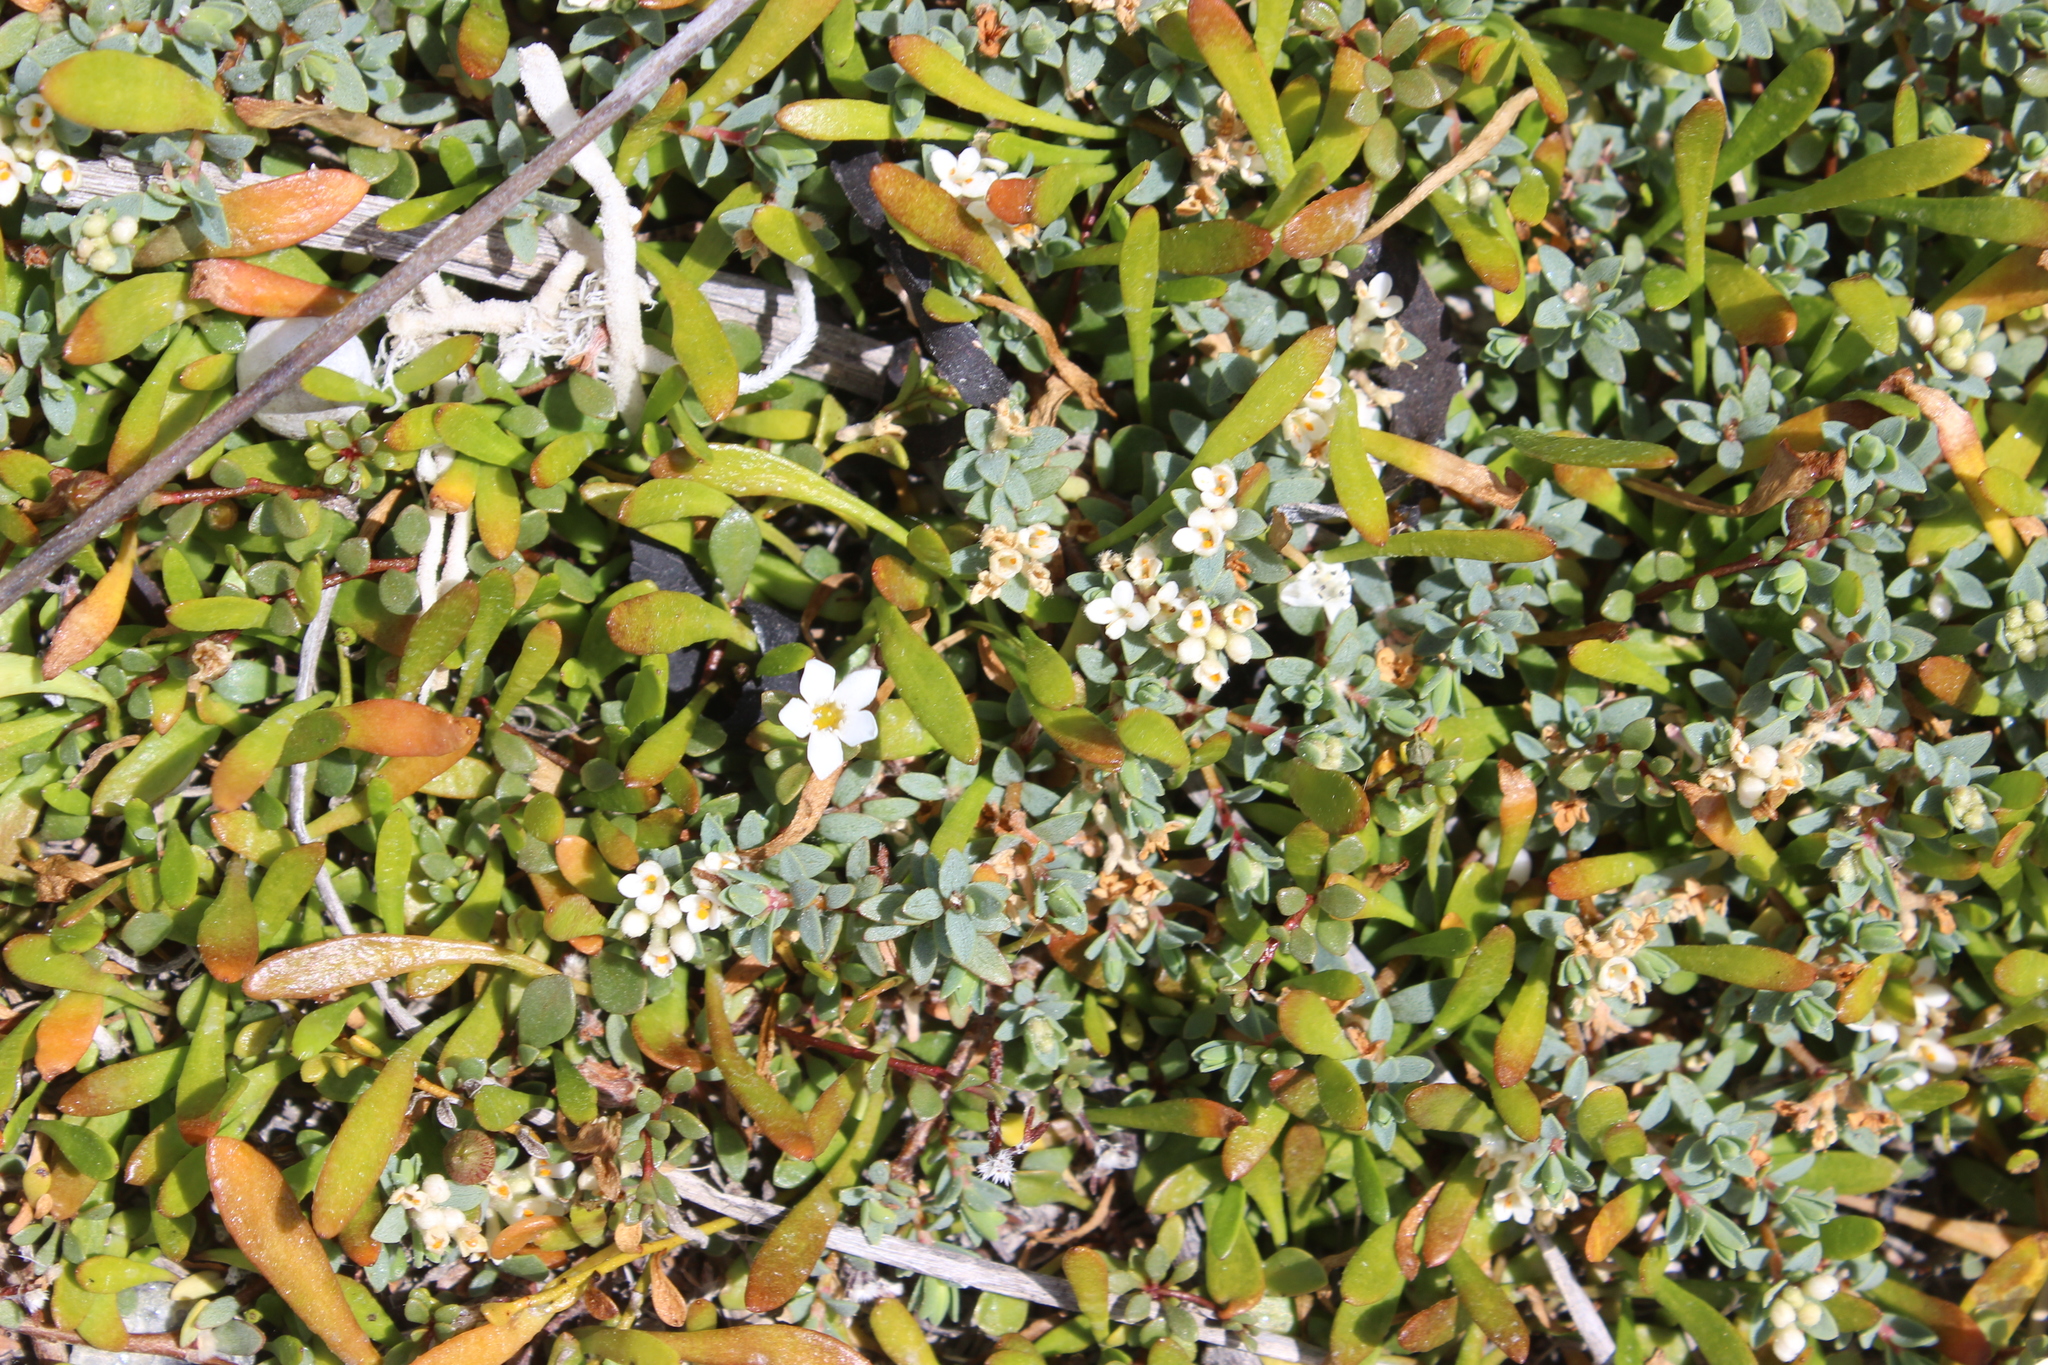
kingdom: Plantae
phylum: Tracheophyta
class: Magnoliopsida
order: Ericales
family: Primulaceae
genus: Samolus
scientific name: Samolus repens
